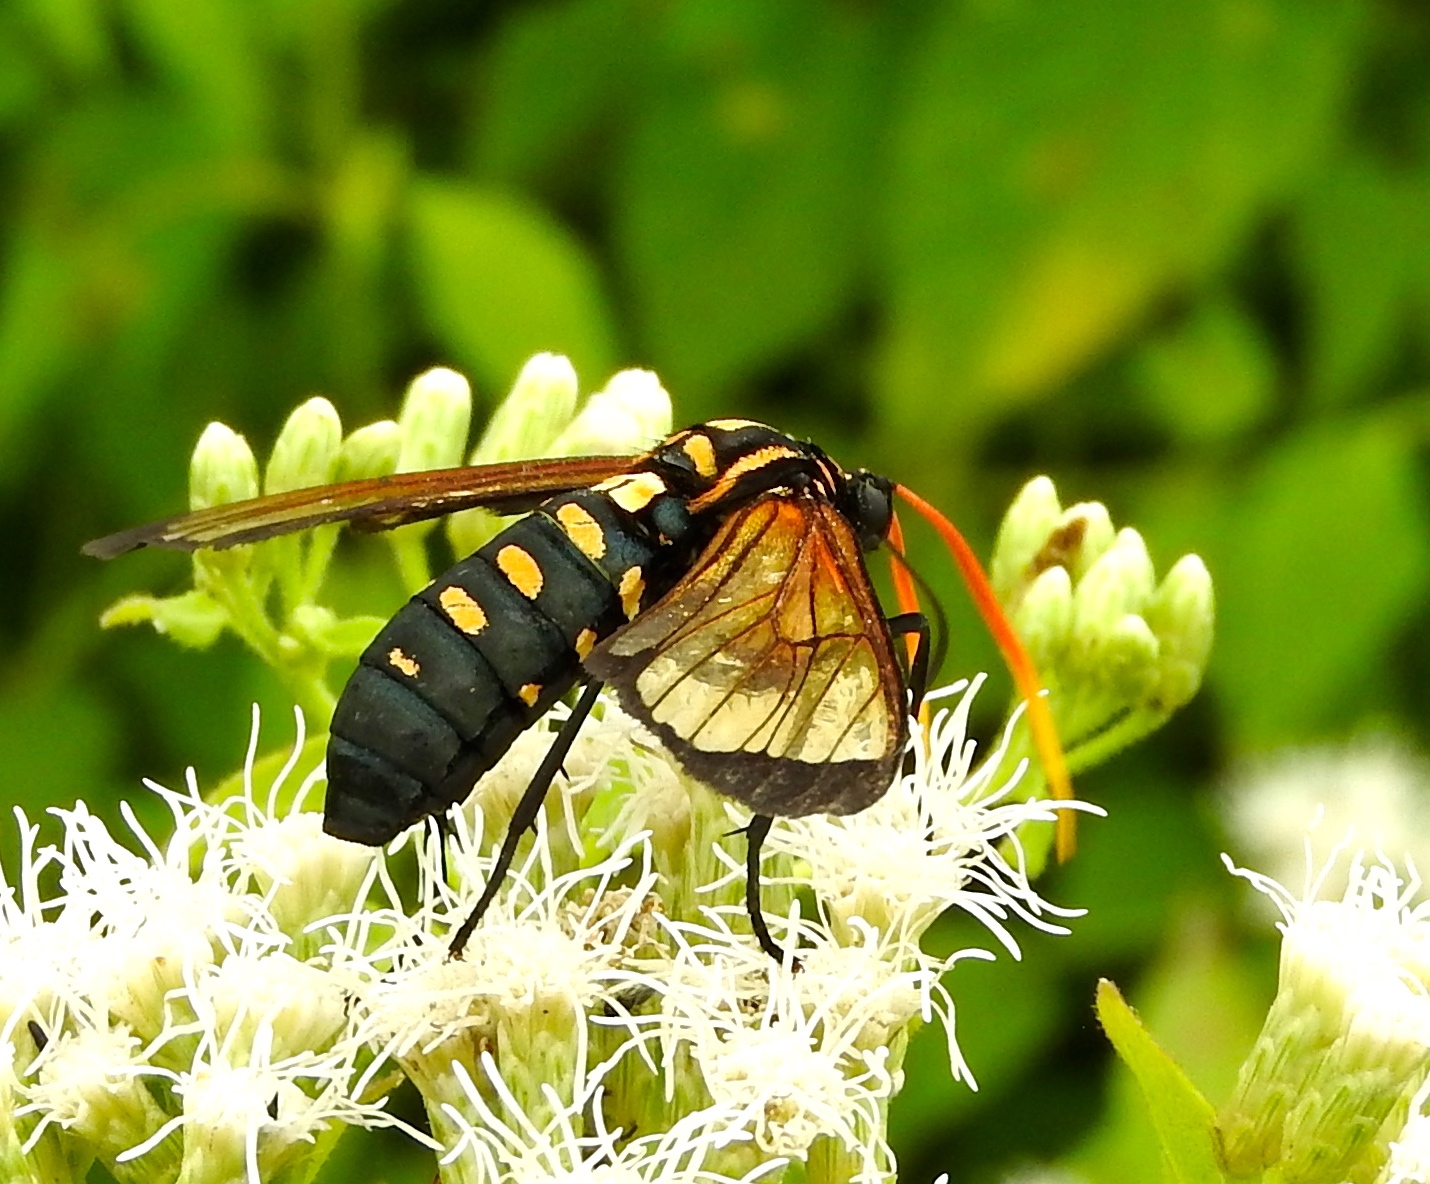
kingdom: Animalia
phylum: Arthropoda
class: Insecta
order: Lepidoptera
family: Erebidae
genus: Isanthrene
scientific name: Isanthrene perboscii
